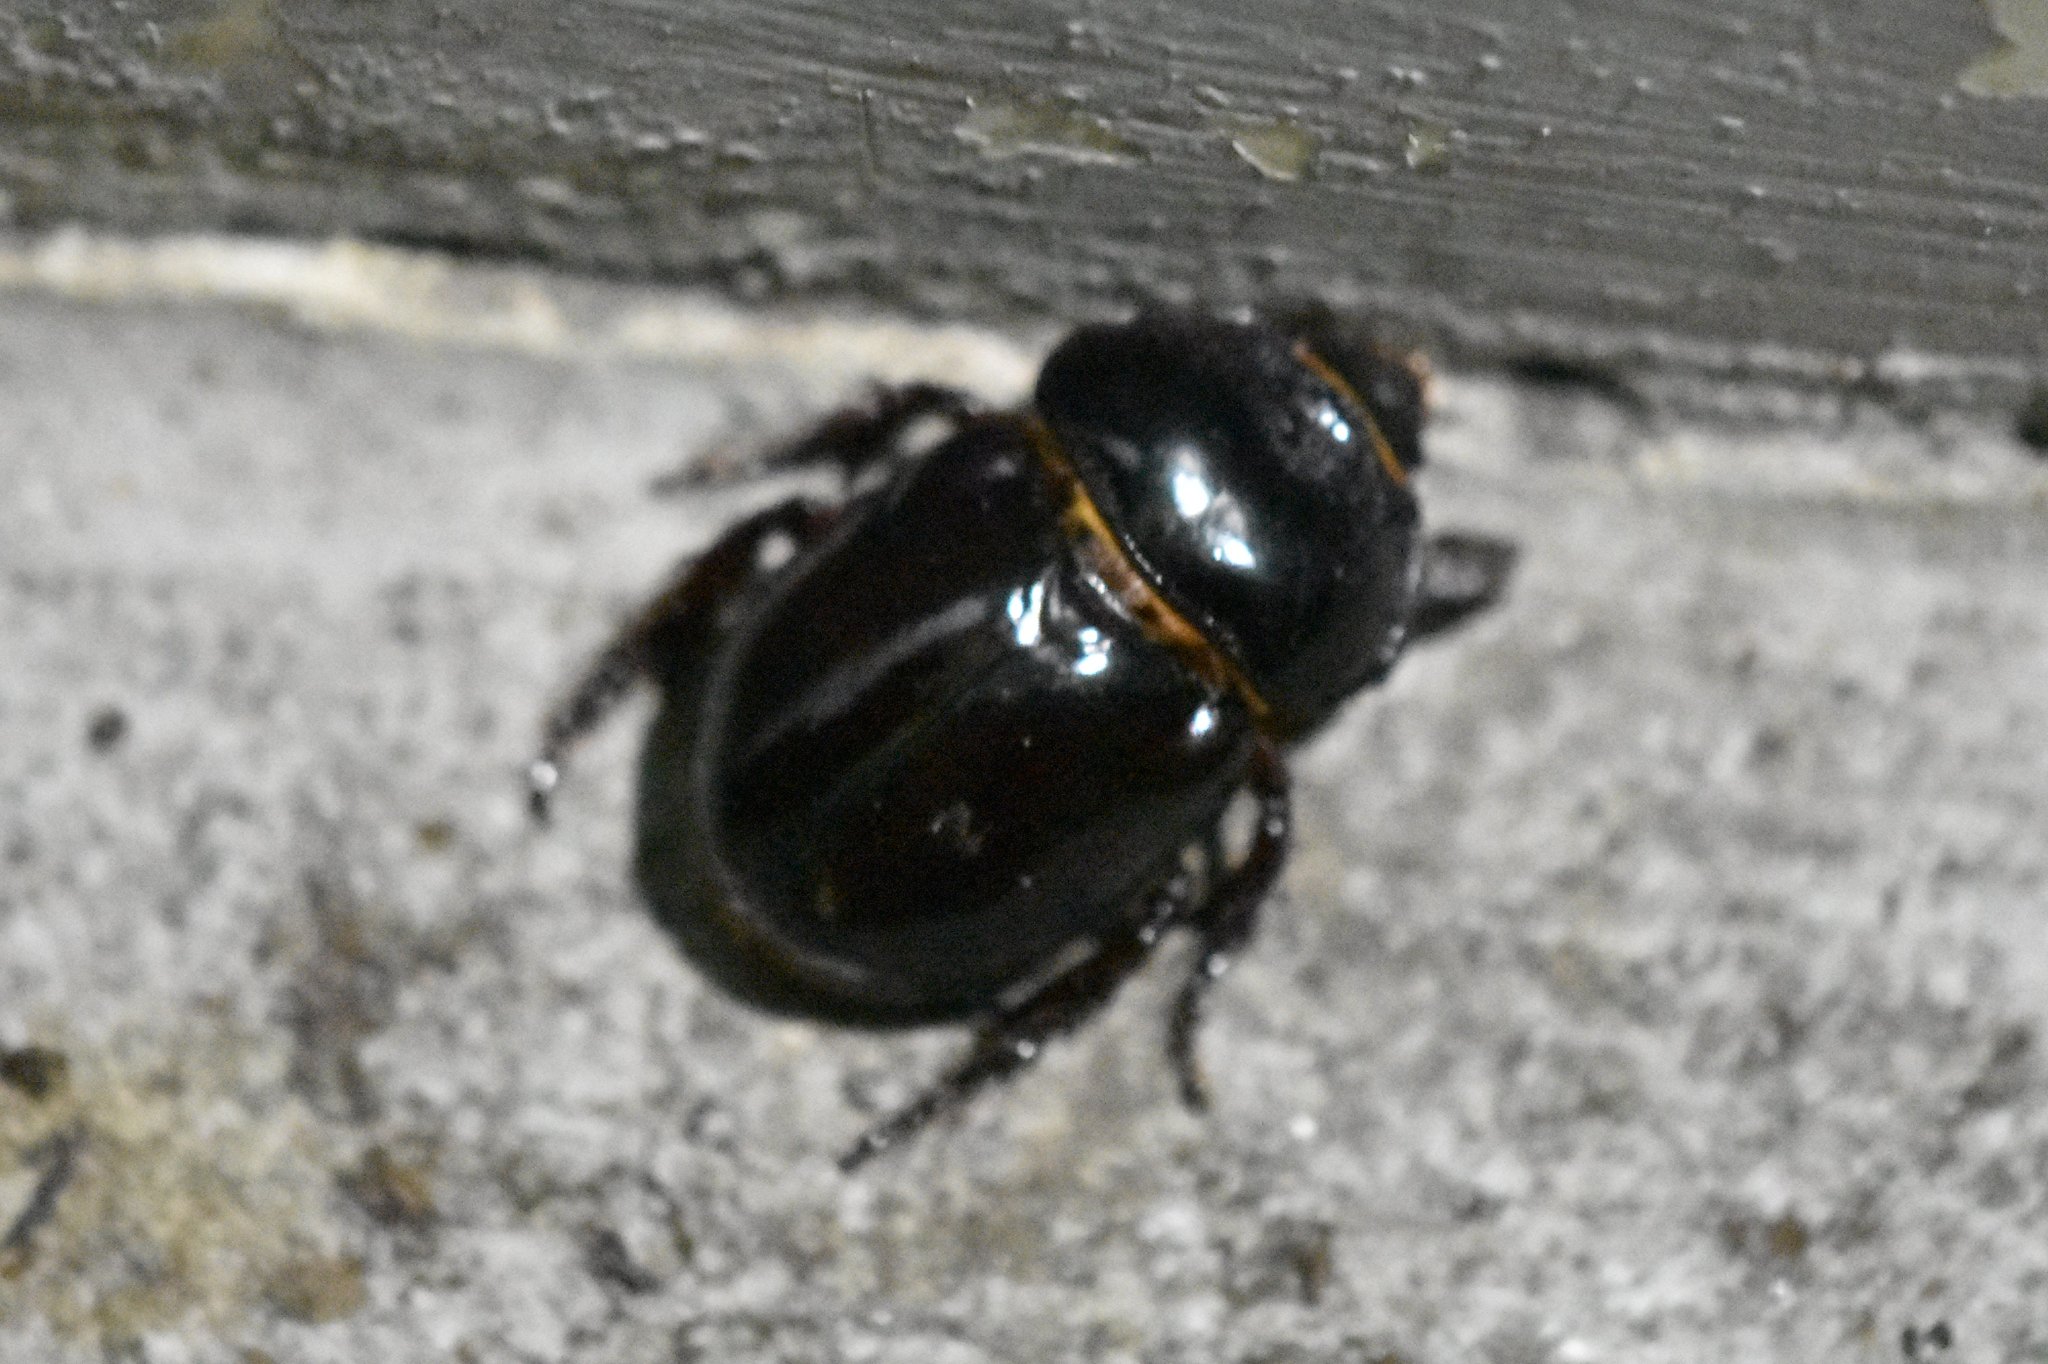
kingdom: Animalia
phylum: Arthropoda
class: Insecta
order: Coleoptera
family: Scarabaeidae
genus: Strategus
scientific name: Strategus antaeus
